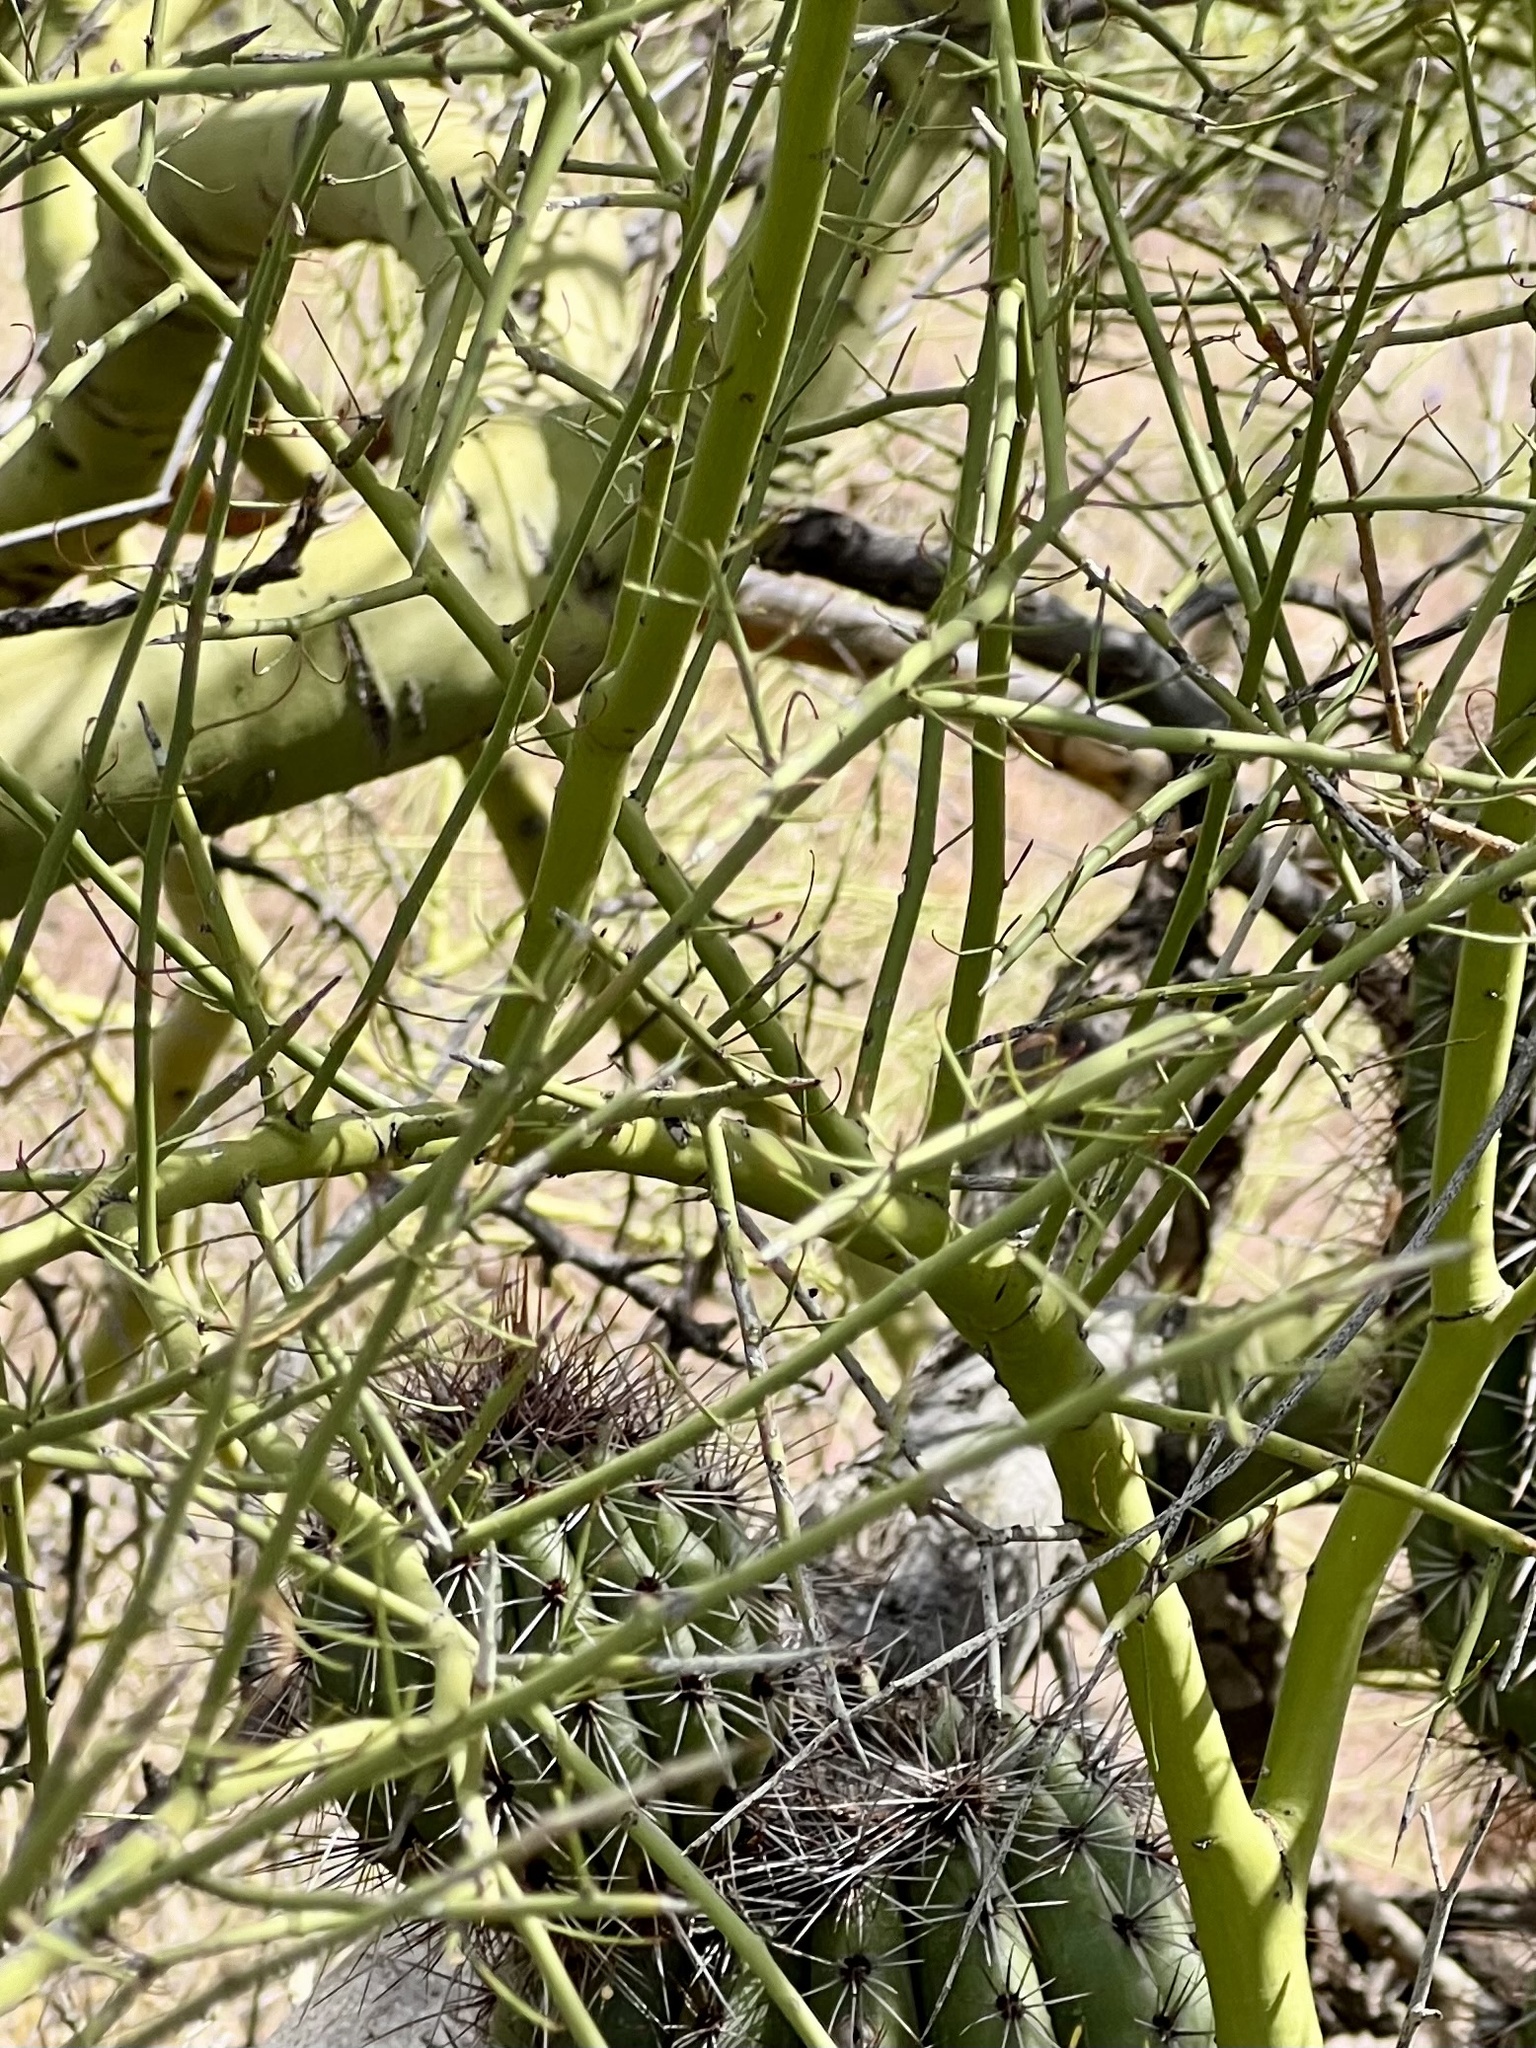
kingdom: Plantae
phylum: Tracheophyta
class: Magnoliopsida
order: Fabales
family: Fabaceae
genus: Parkinsonia
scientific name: Parkinsonia microphylla
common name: Yellow paloverde
